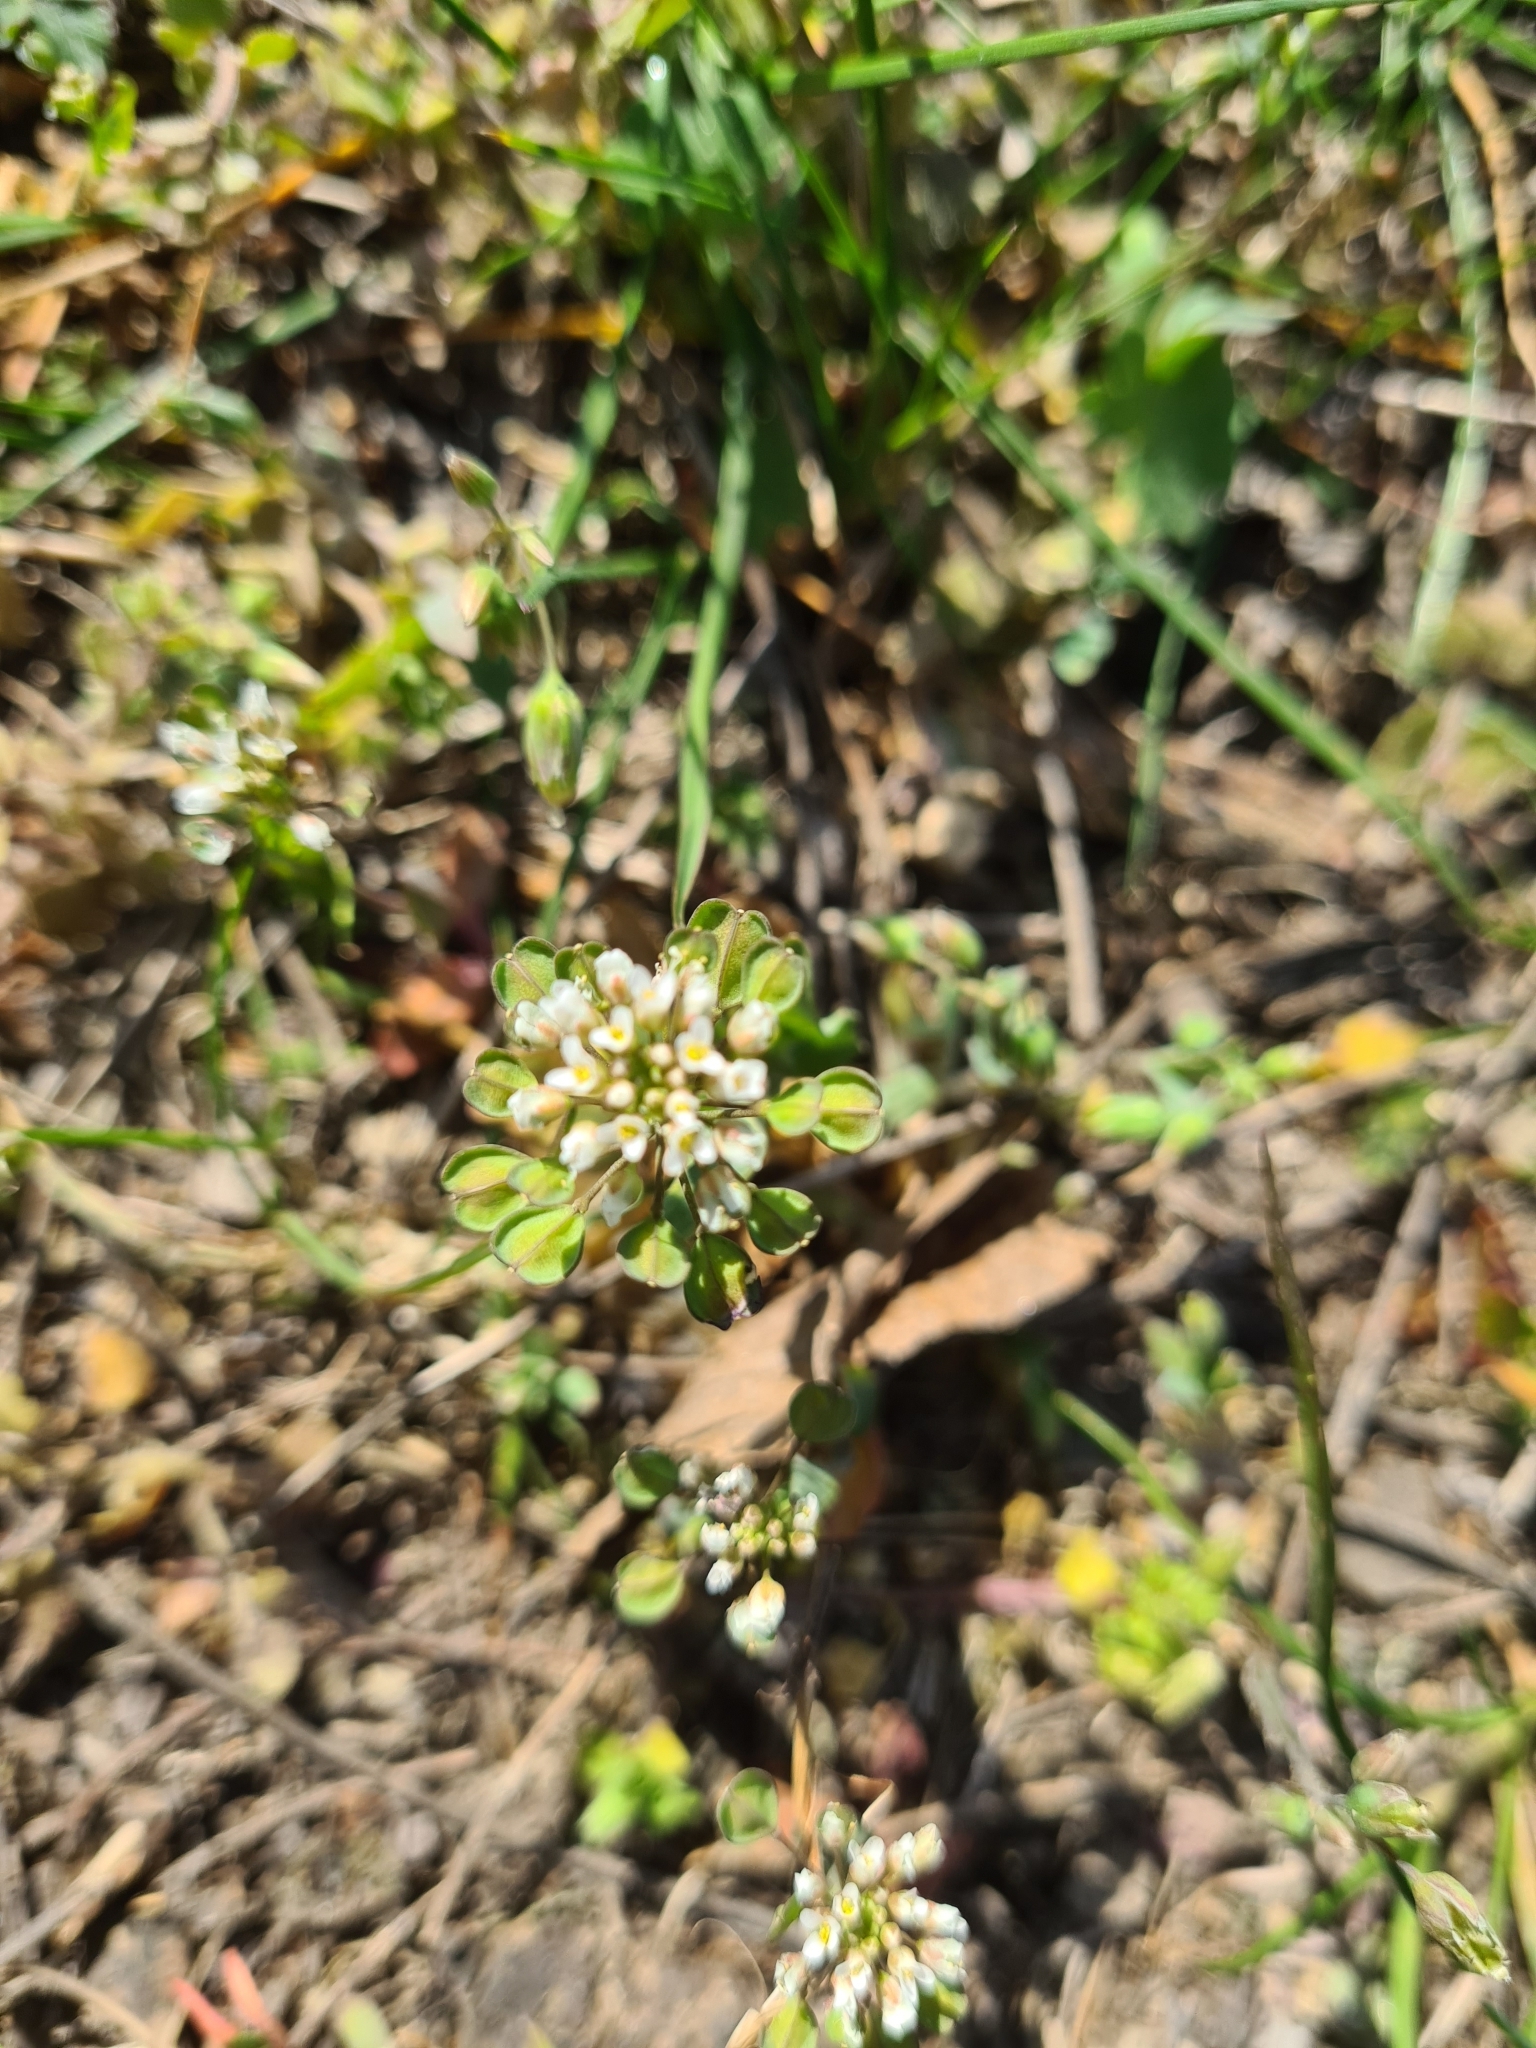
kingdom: Plantae
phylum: Tracheophyta
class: Magnoliopsida
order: Brassicales
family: Brassicaceae
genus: Noccaea
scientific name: Noccaea perfoliata
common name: Perfoliate pennycress
